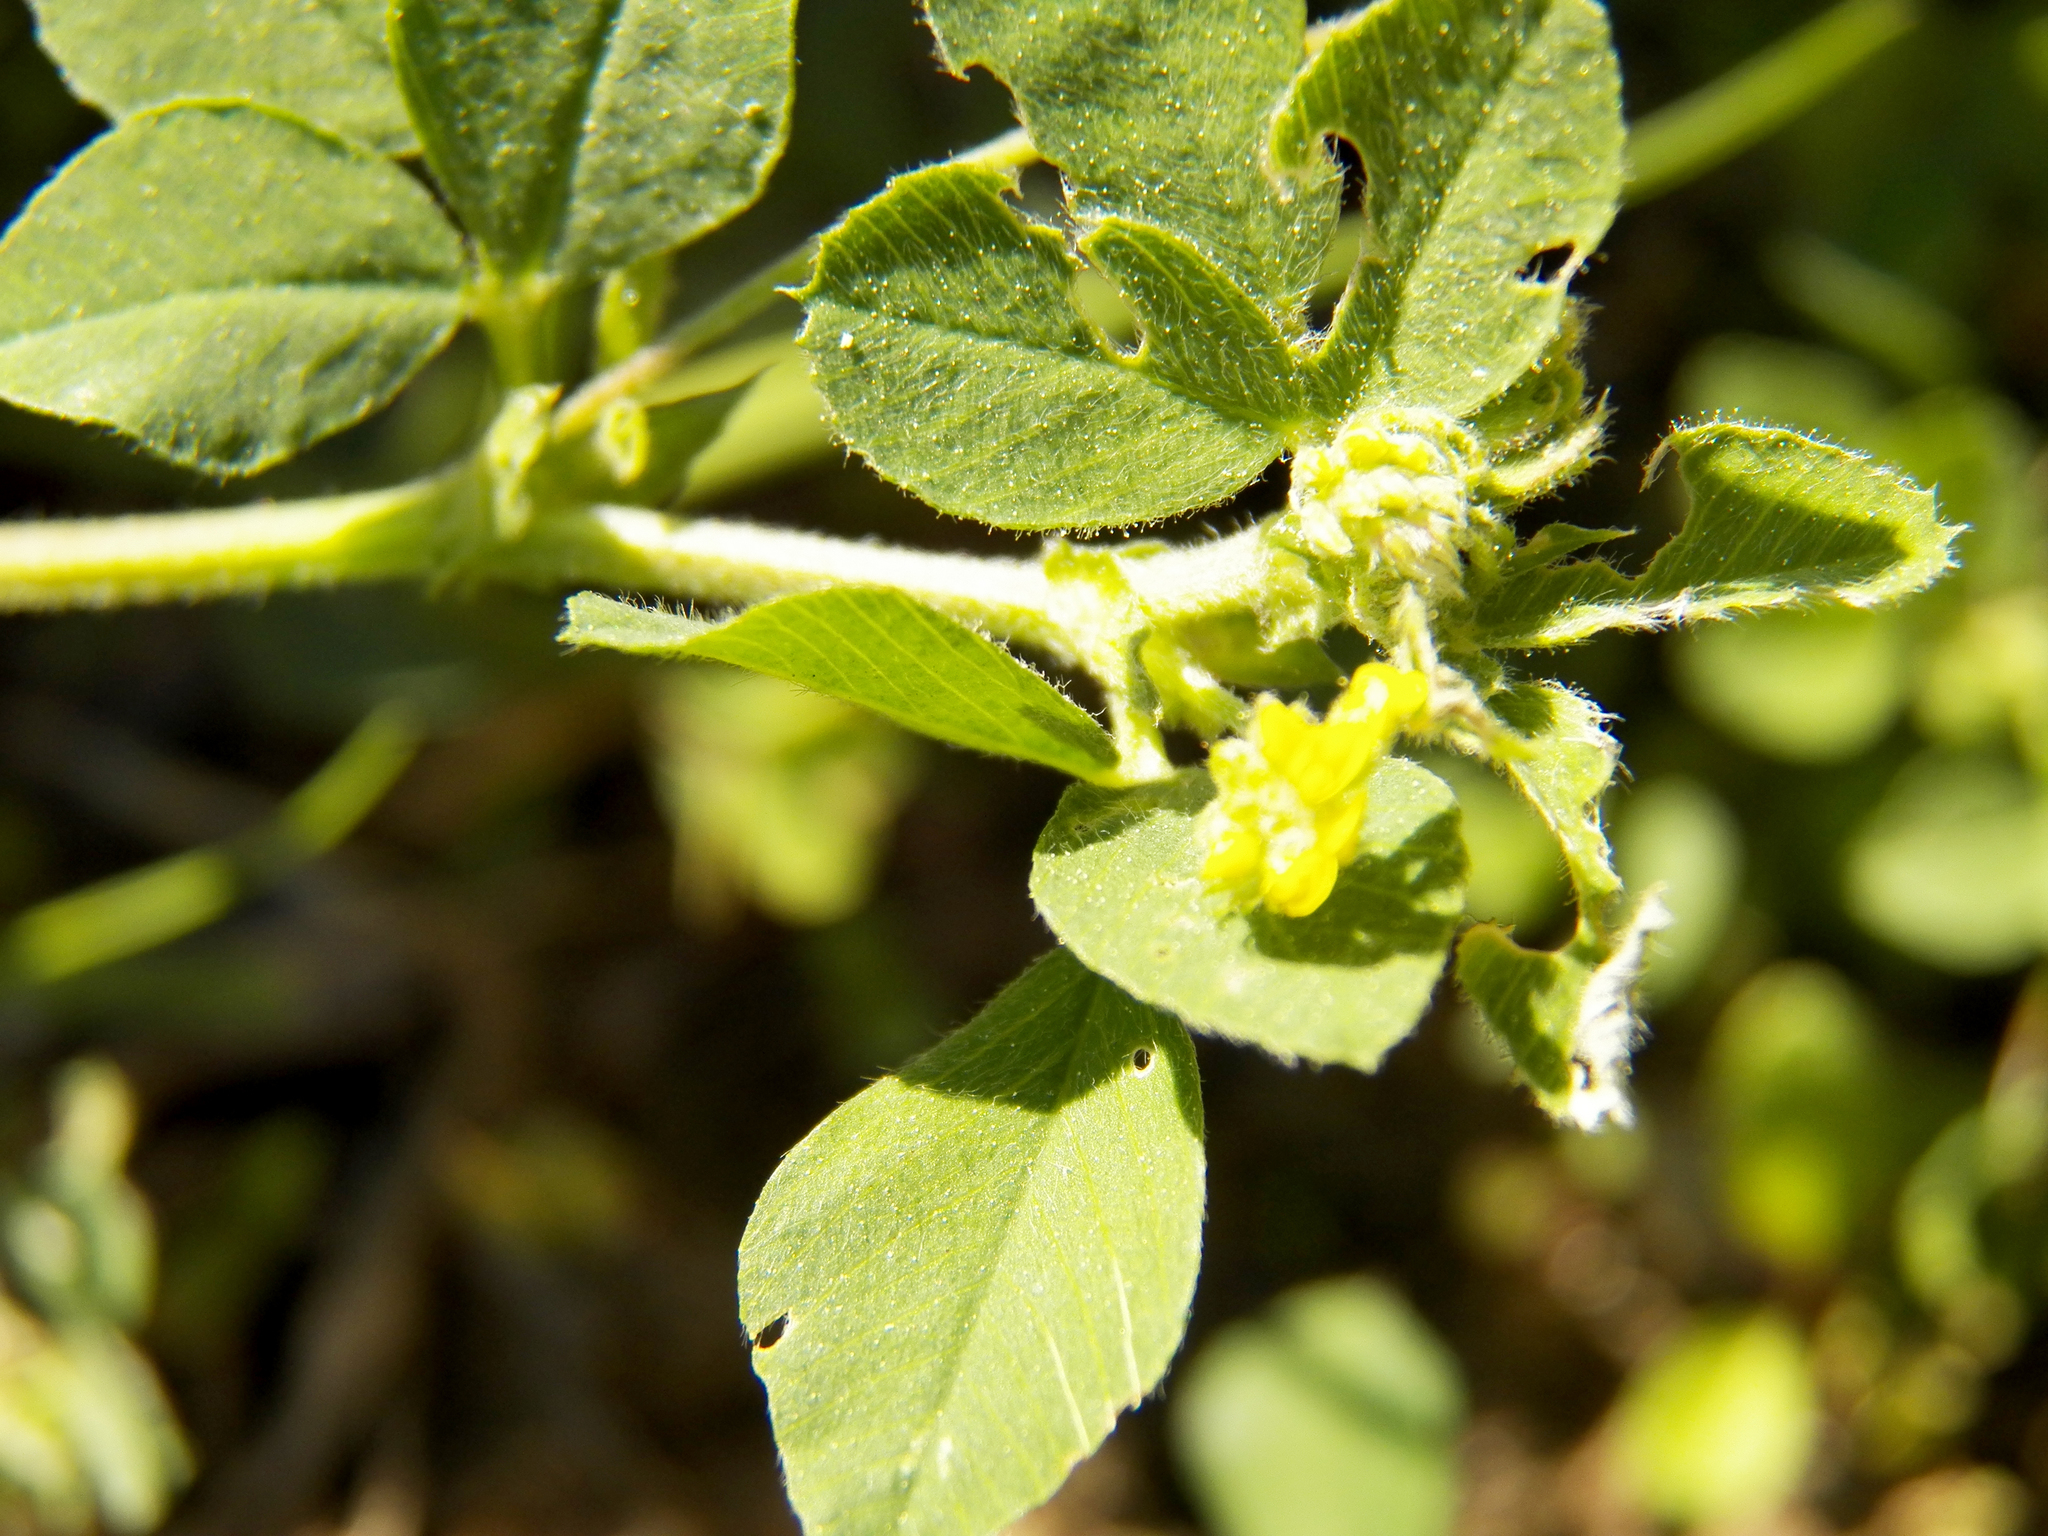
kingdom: Plantae
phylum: Tracheophyta
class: Magnoliopsida
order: Fabales
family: Fabaceae
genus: Medicago
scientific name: Medicago lupulina
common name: Black medick
